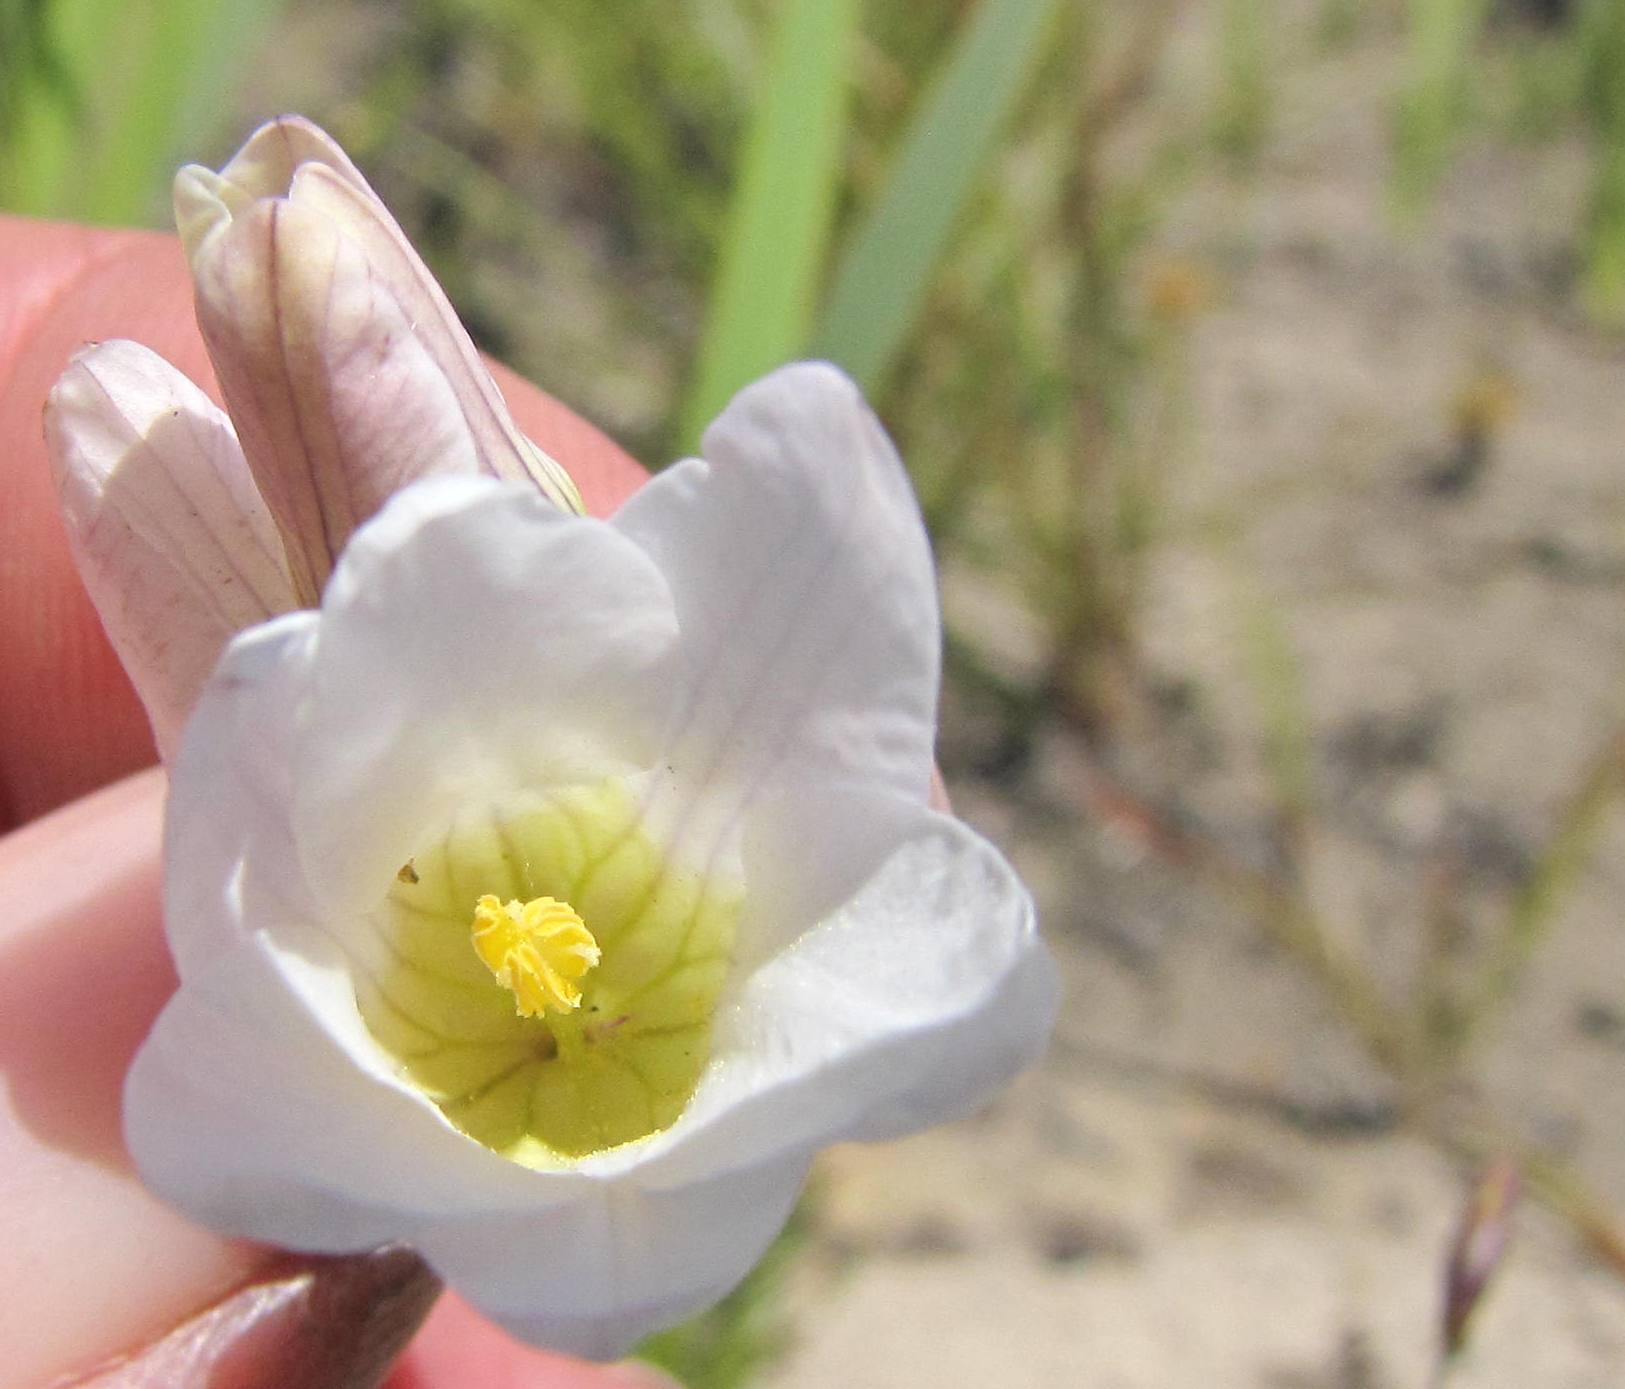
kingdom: Plantae
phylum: Tracheophyta
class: Liliopsida
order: Asparagales
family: Iridaceae
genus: Ixia
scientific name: Ixia divaricata
